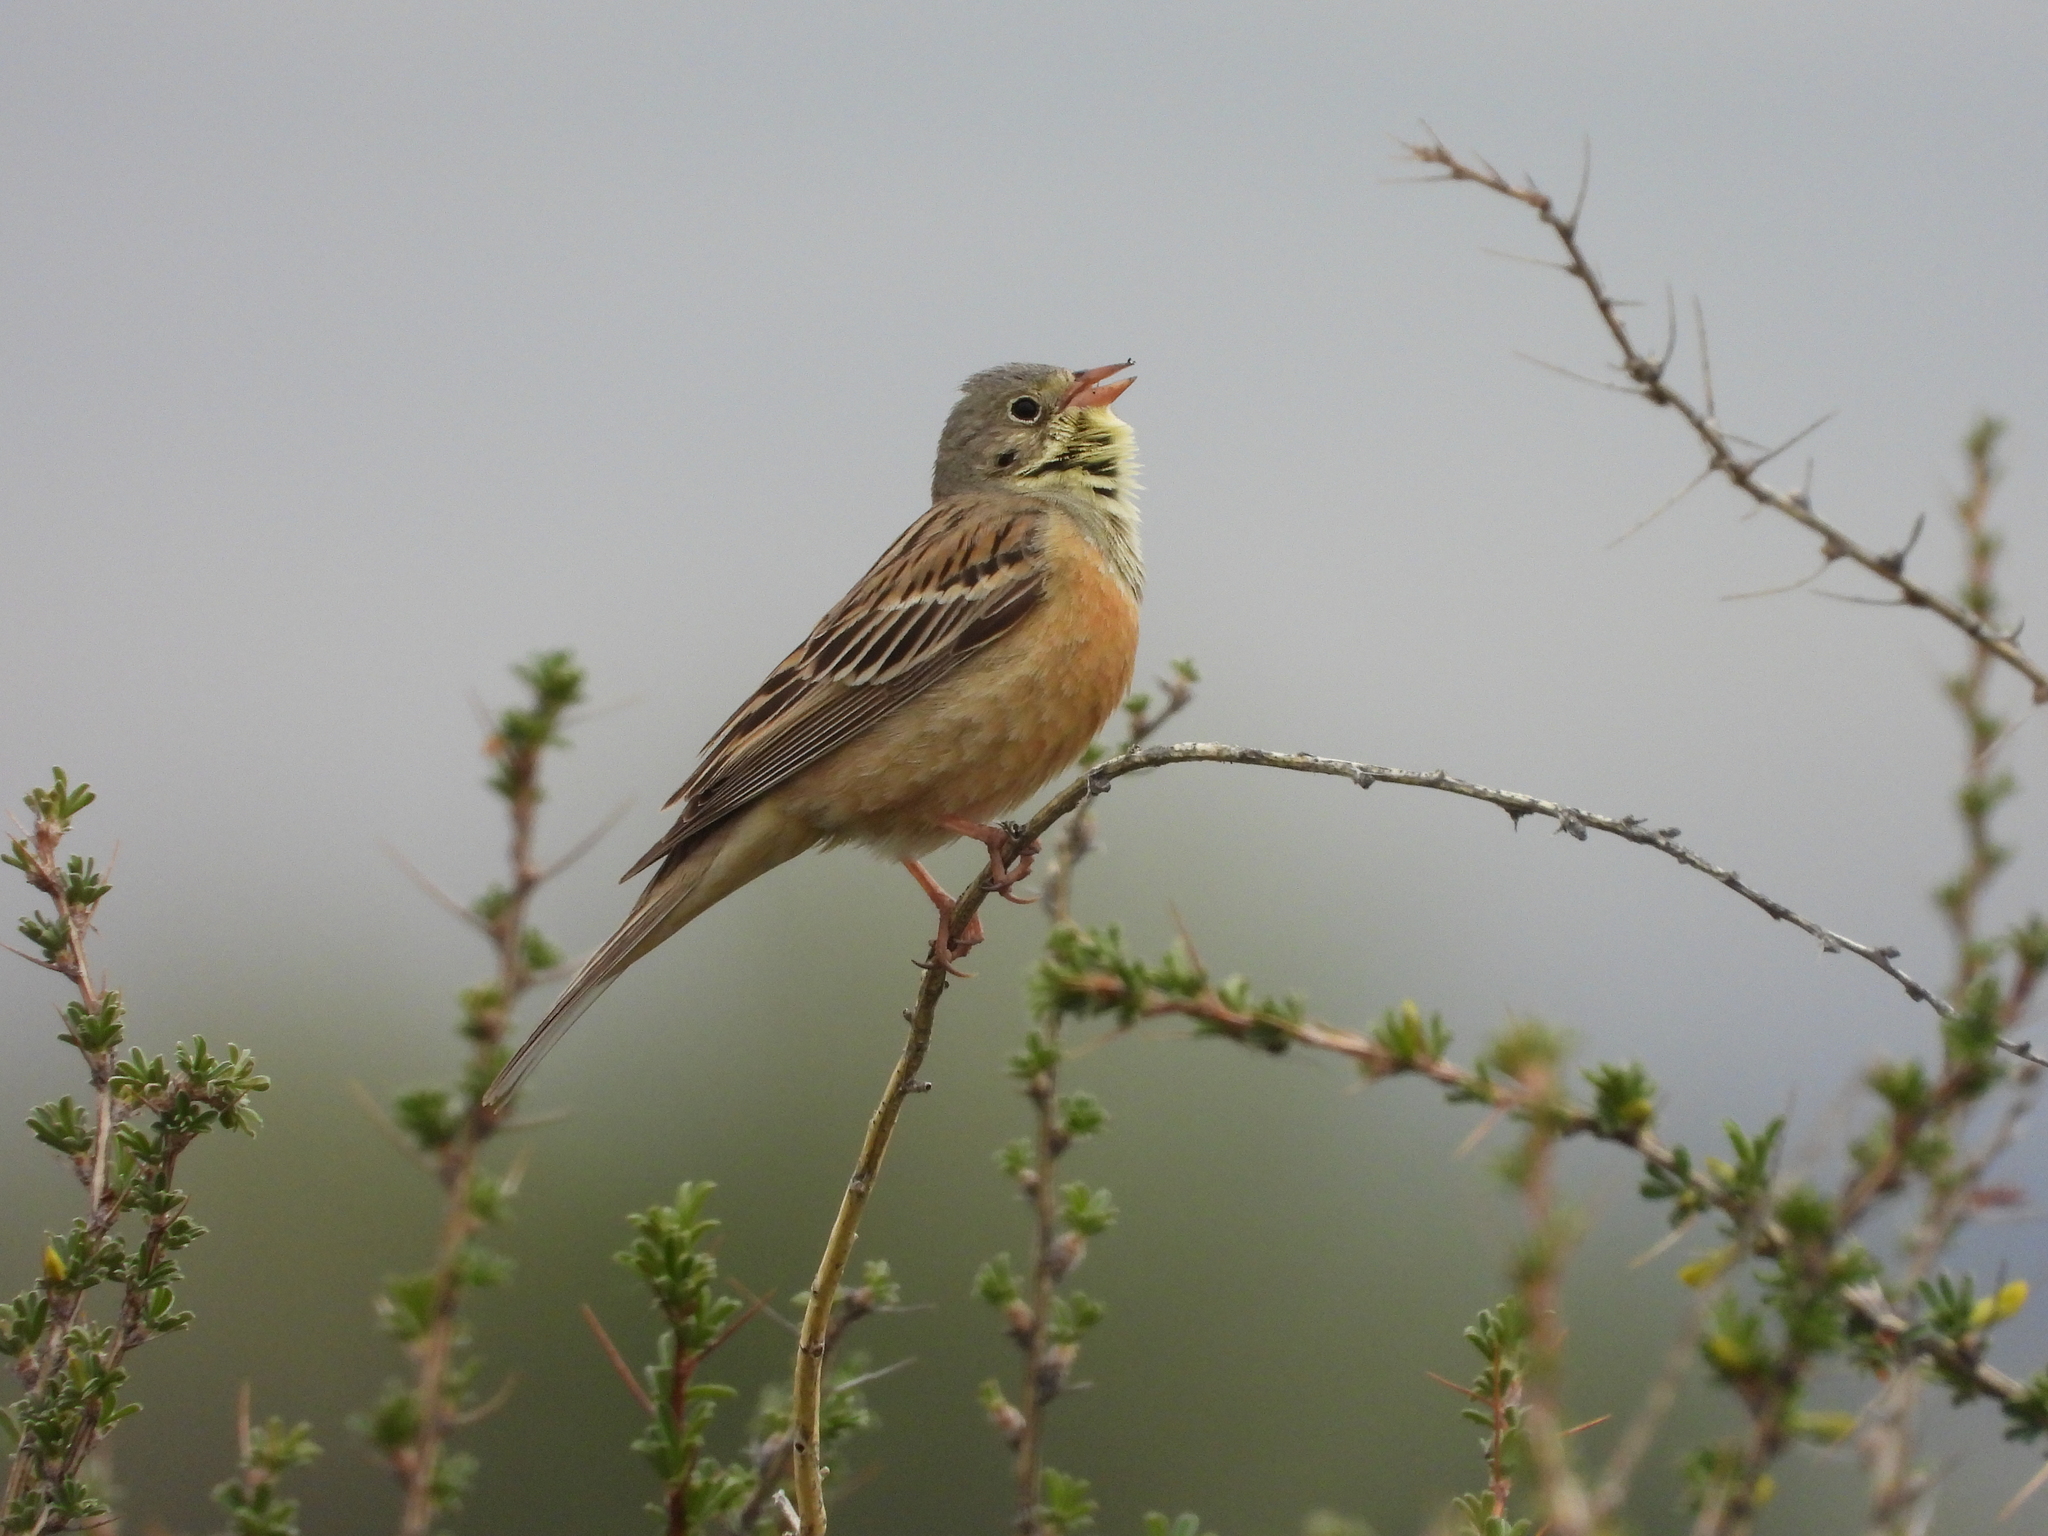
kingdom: Animalia
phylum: Chordata
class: Aves
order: Passeriformes
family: Emberizidae
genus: Emberiza
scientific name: Emberiza hortulana
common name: Ortolan bunting
